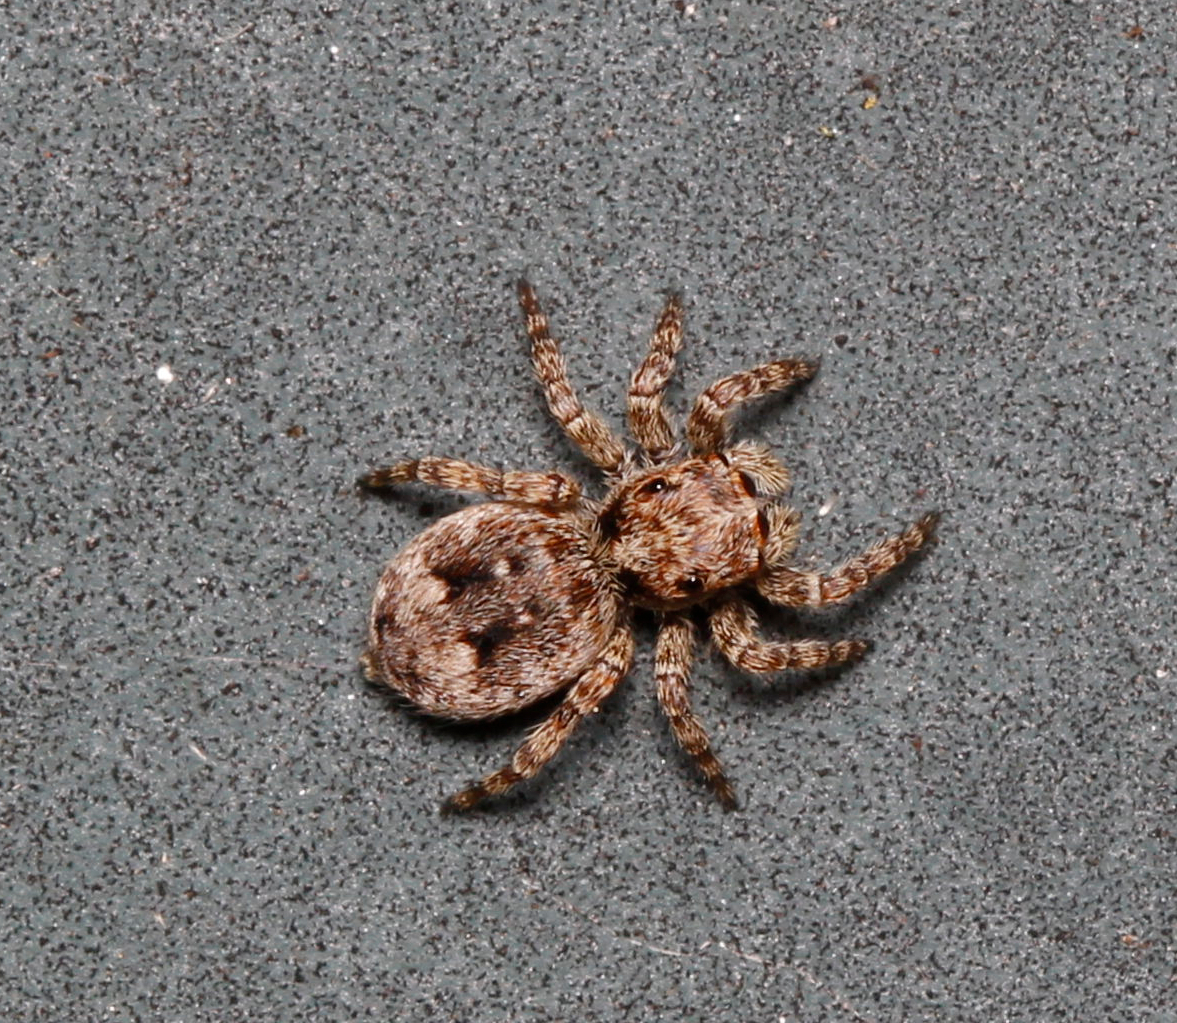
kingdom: Animalia
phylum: Arthropoda
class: Arachnida
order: Araneae
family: Salticidae
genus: Attulus
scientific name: Attulus fasciger
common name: Asiatic wall jumping spider
